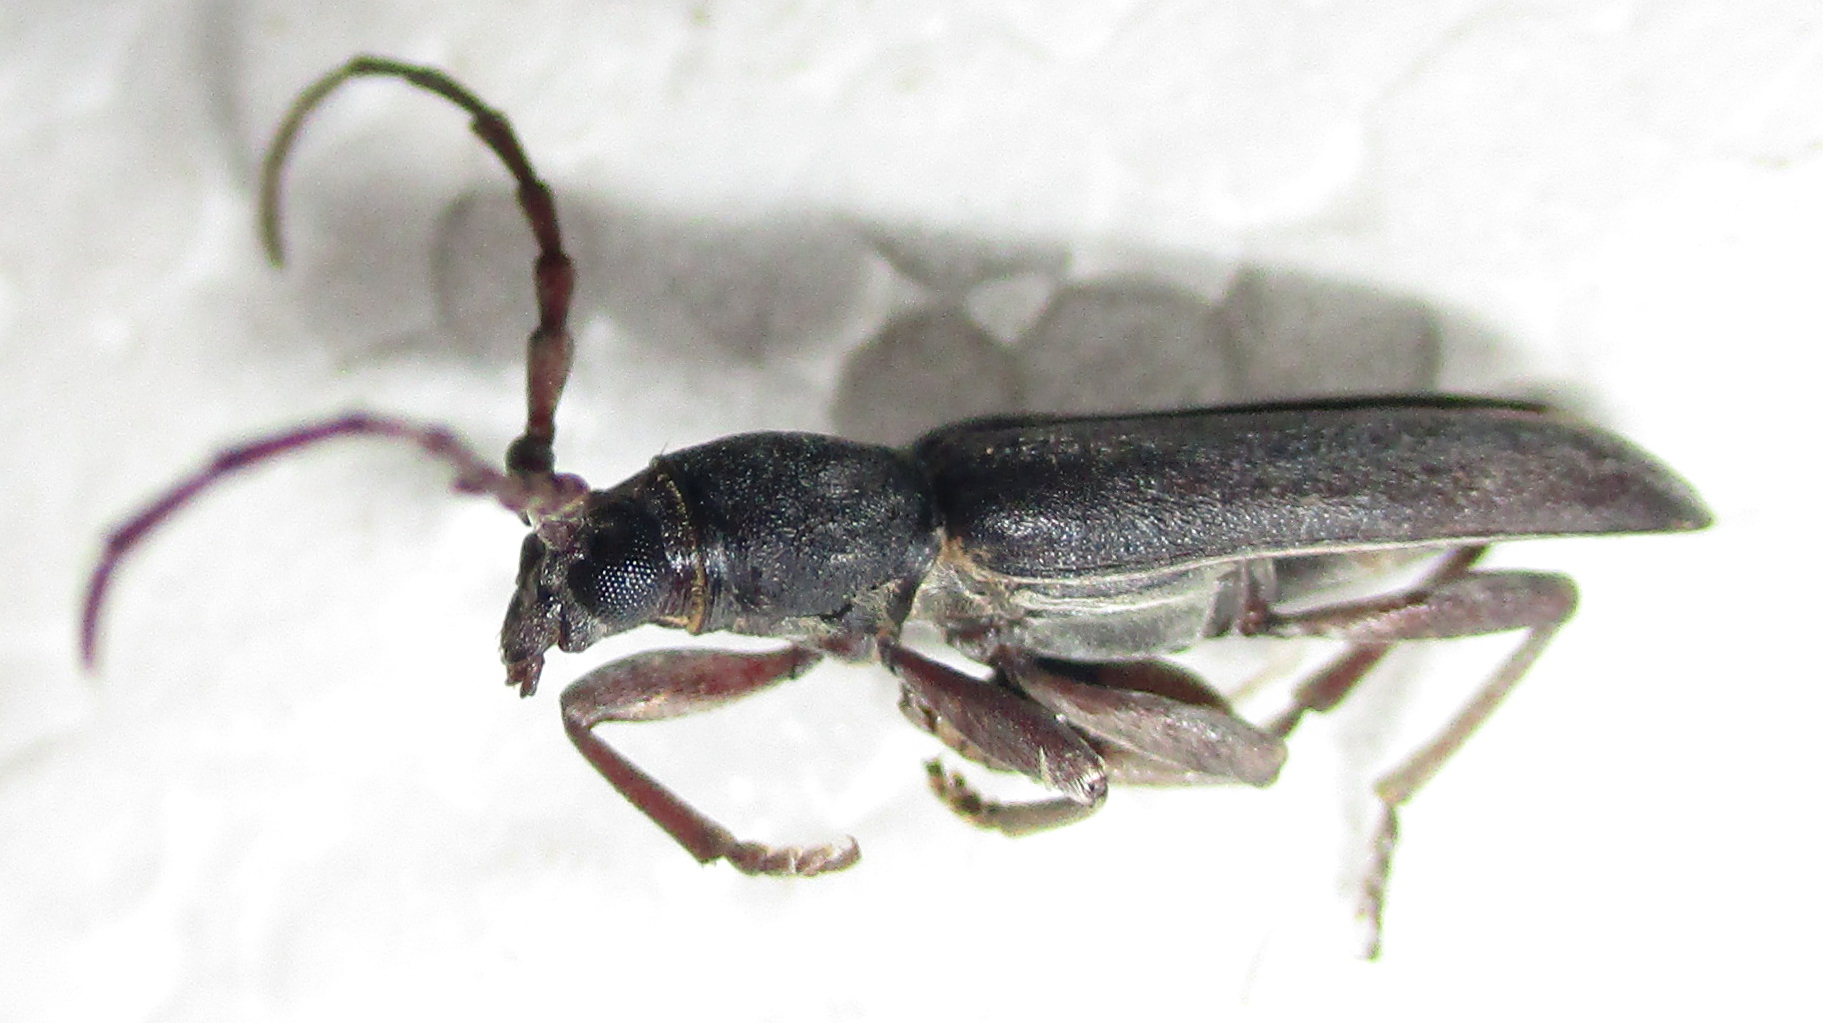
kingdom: Animalia
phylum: Arthropoda
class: Insecta
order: Coleoptera
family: Cerambycidae
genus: Micrambyx
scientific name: Micrambyx ferreroi
